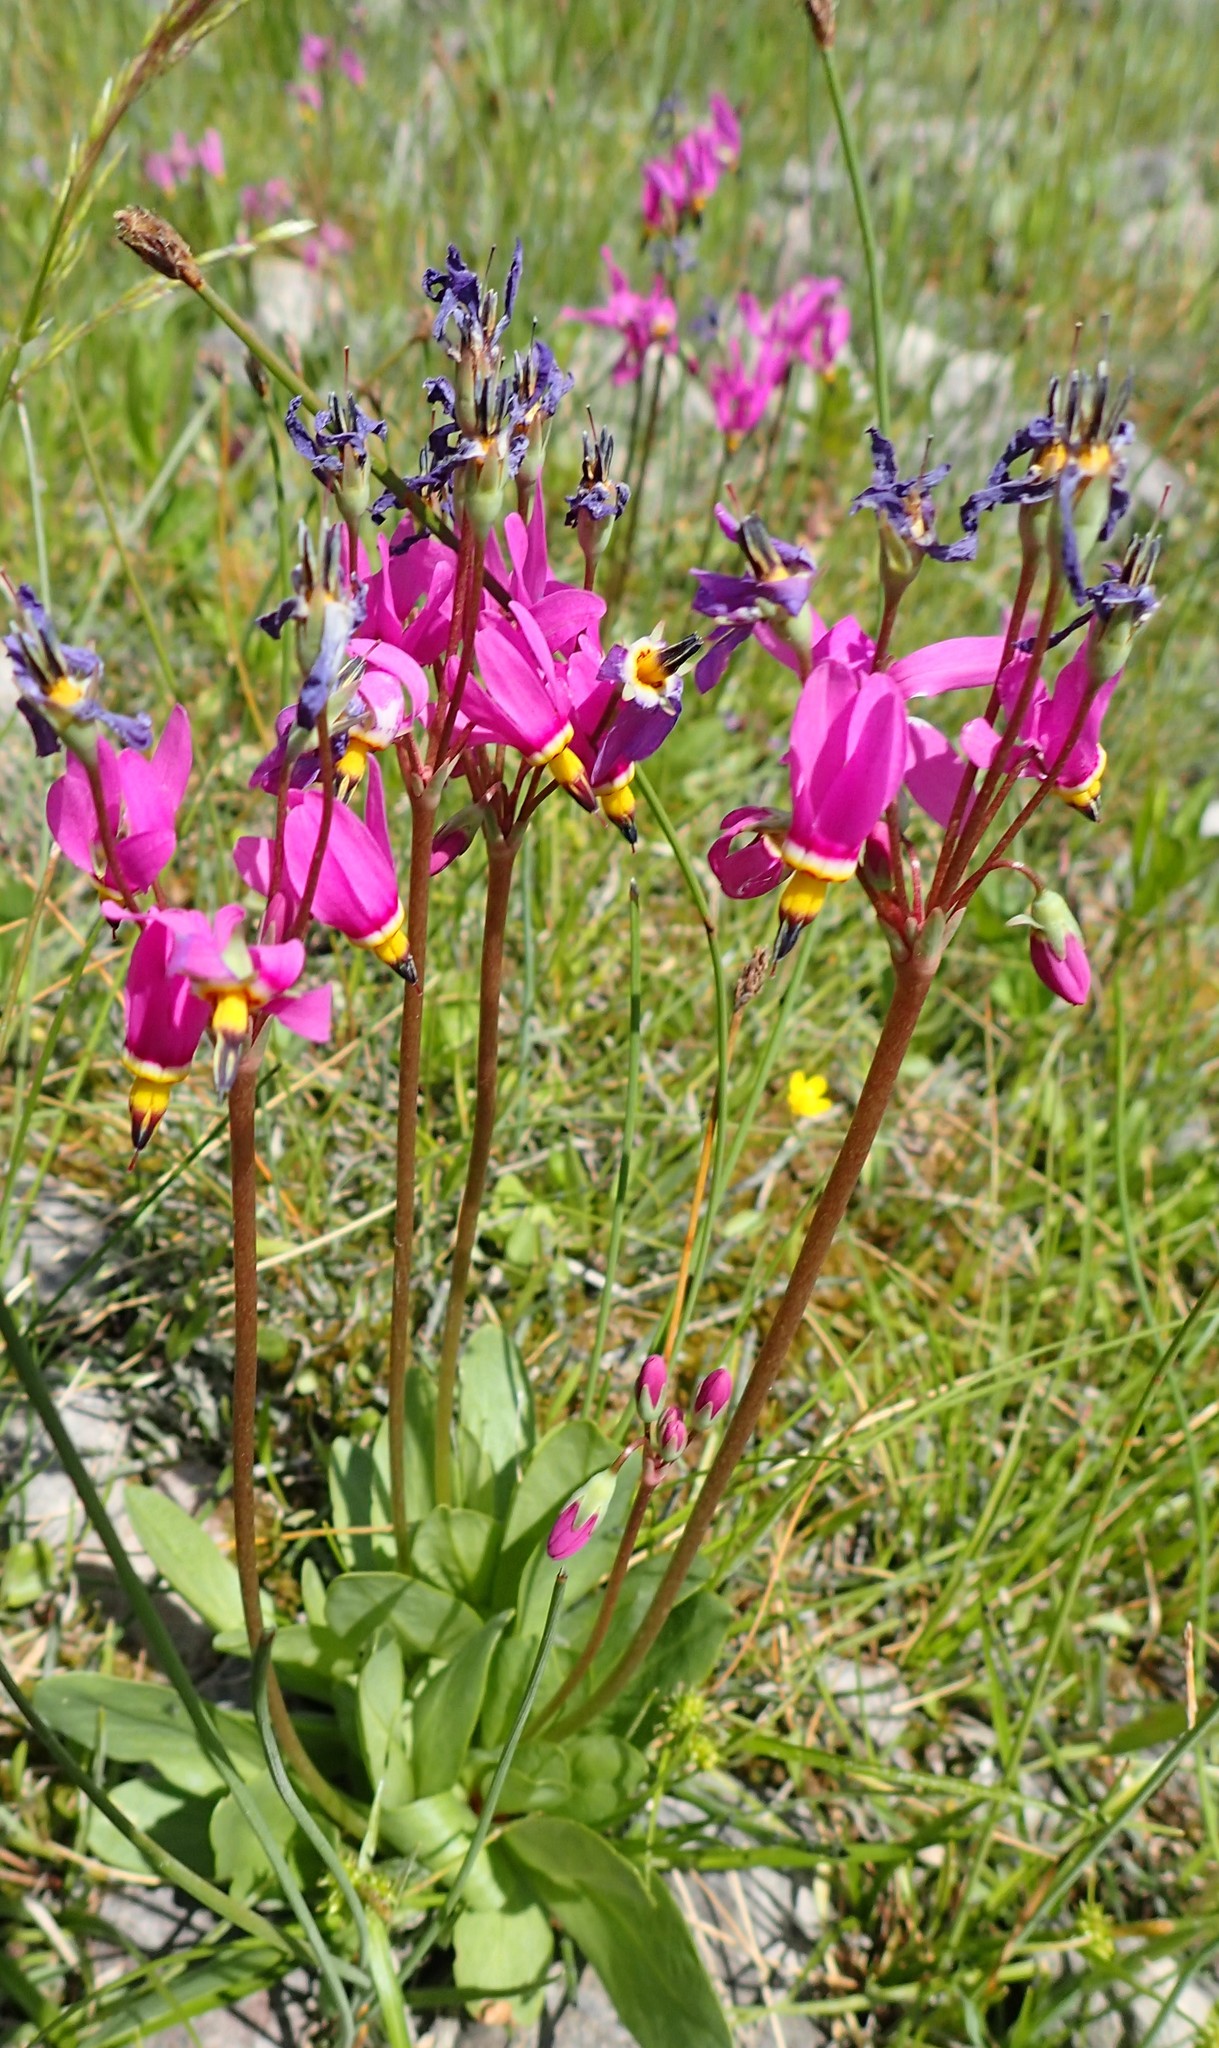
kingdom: Plantae
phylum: Tracheophyta
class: Magnoliopsida
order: Ericales
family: Primulaceae
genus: Dodecatheon
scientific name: Dodecatheon pulchellum
